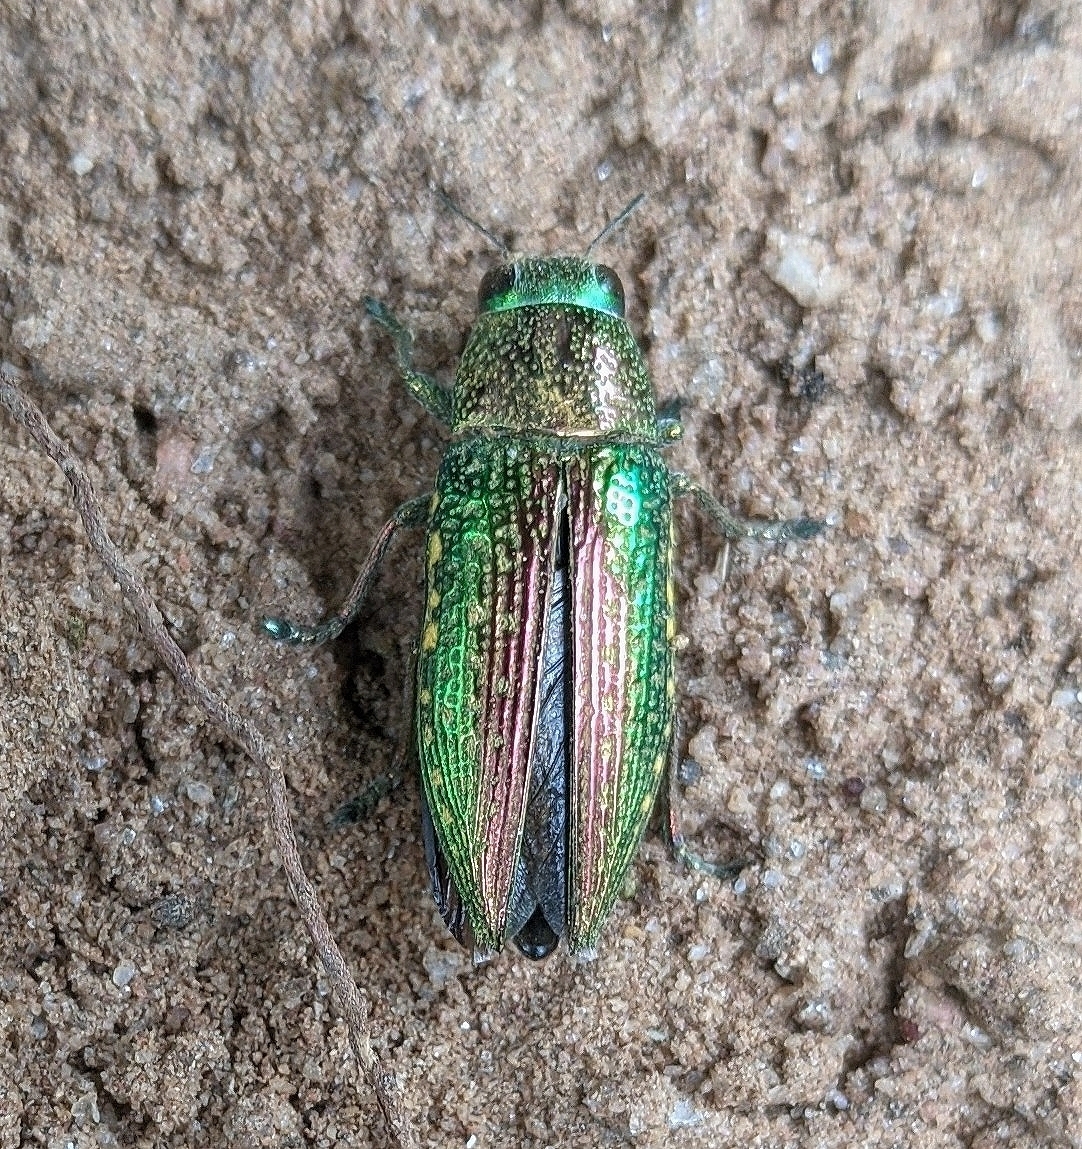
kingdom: Animalia
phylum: Arthropoda
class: Insecta
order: Coleoptera
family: Buprestidae
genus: Lampetis
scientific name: Lampetis cupreosplendens
